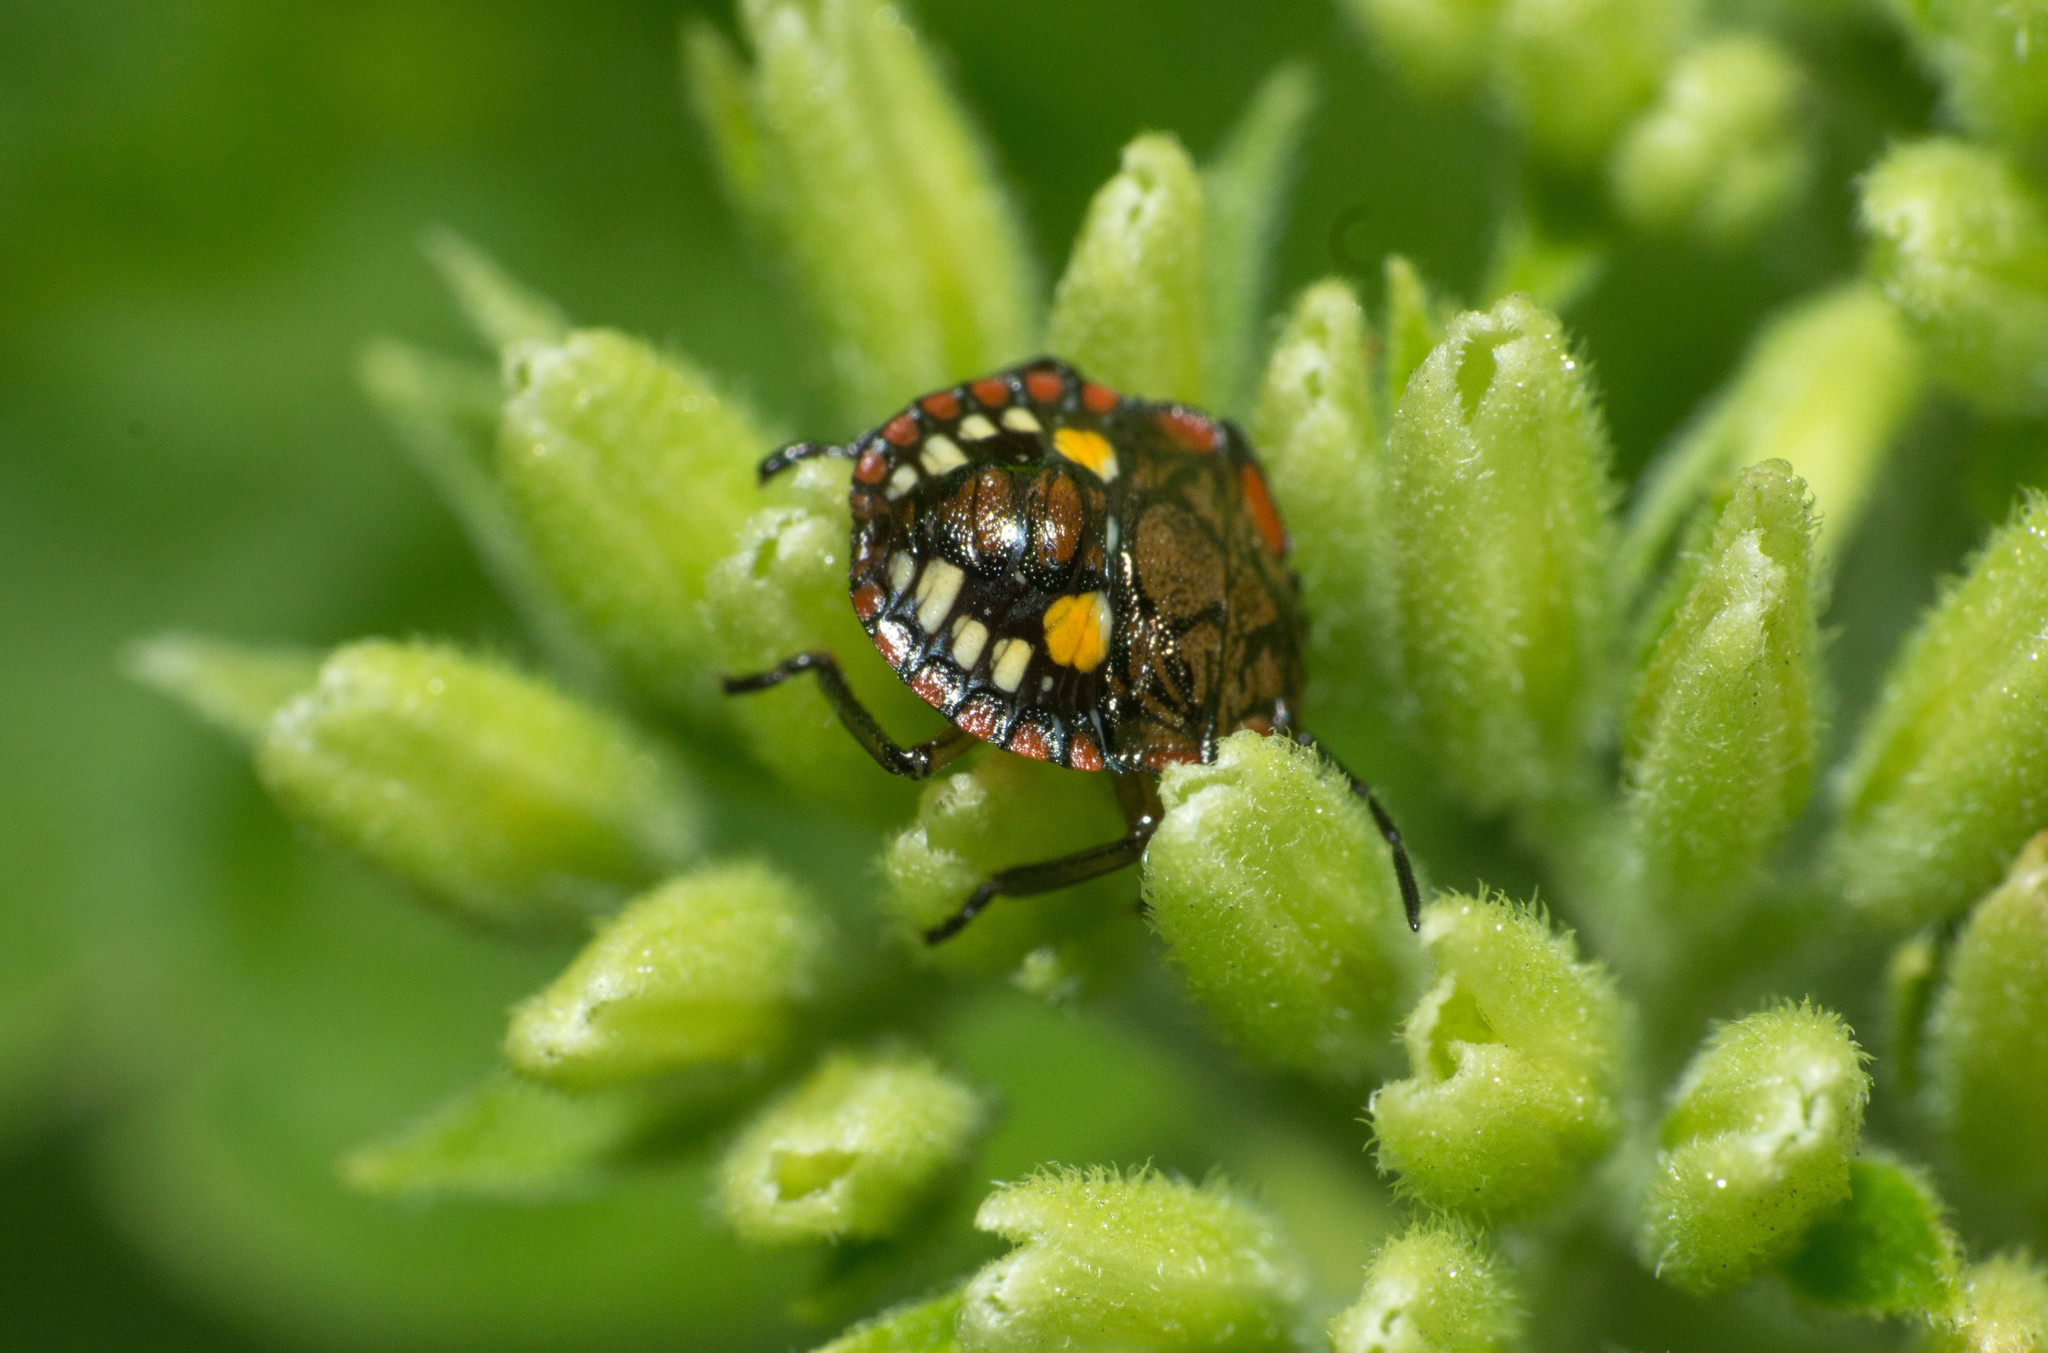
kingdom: Animalia
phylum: Arthropoda
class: Insecta
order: Hemiptera
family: Pentatomidae
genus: Chinavia
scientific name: Chinavia
